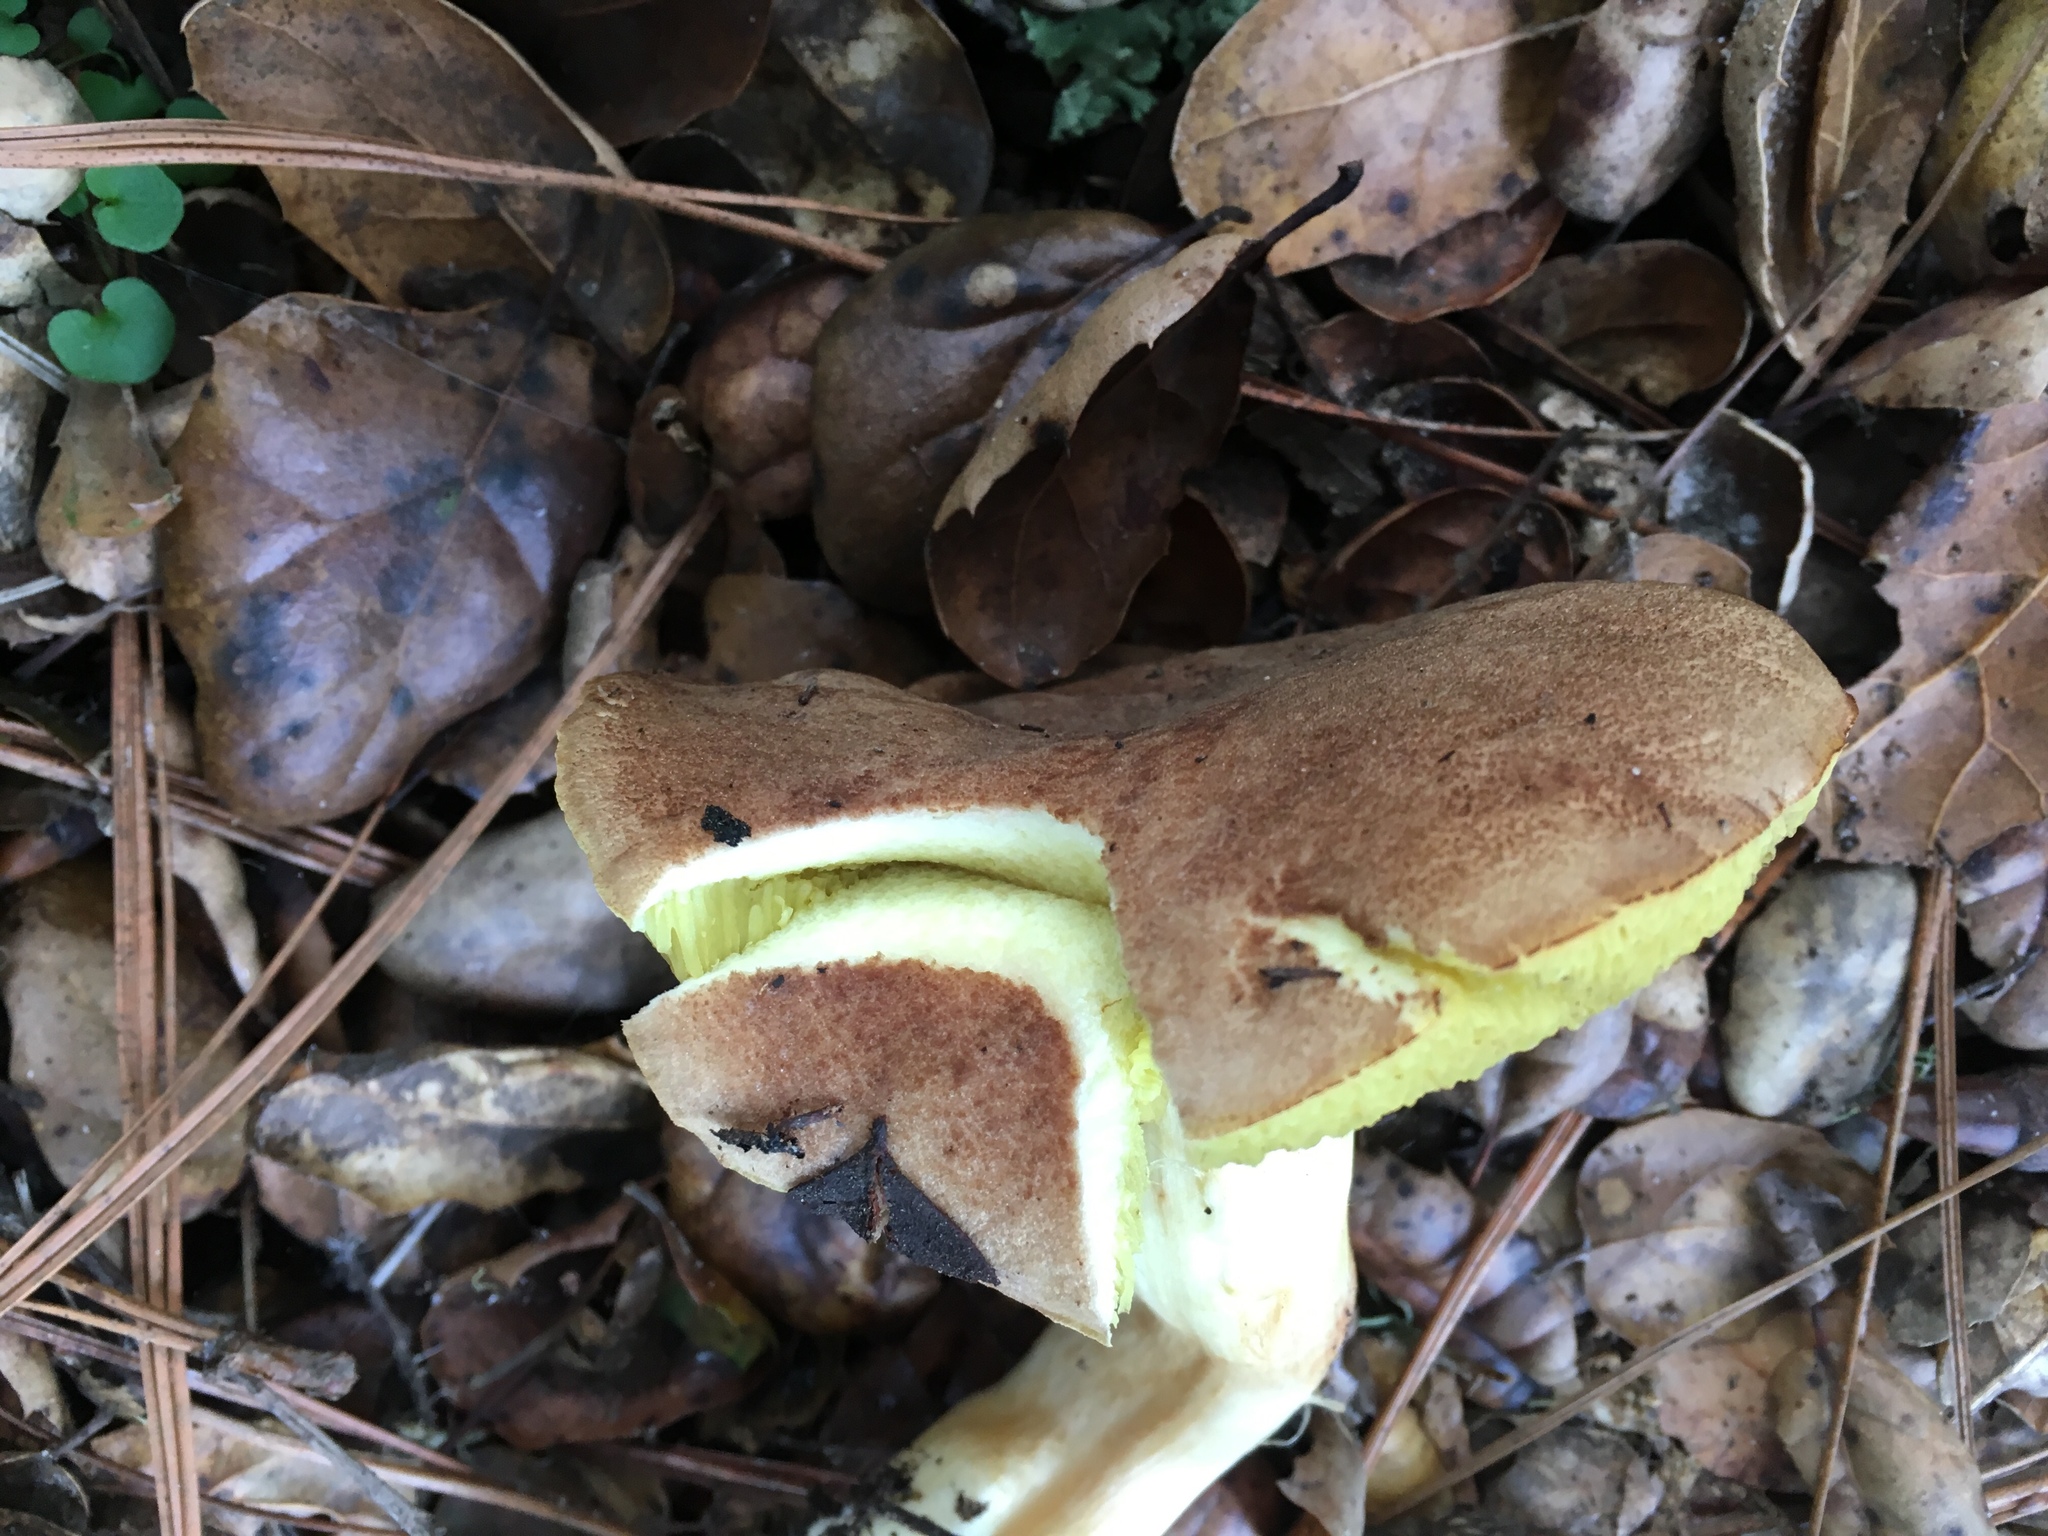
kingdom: Fungi
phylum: Basidiomycota
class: Agaricomycetes
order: Boletales
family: Boletaceae
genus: Xerocomus
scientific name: Xerocomus subtomentosus
